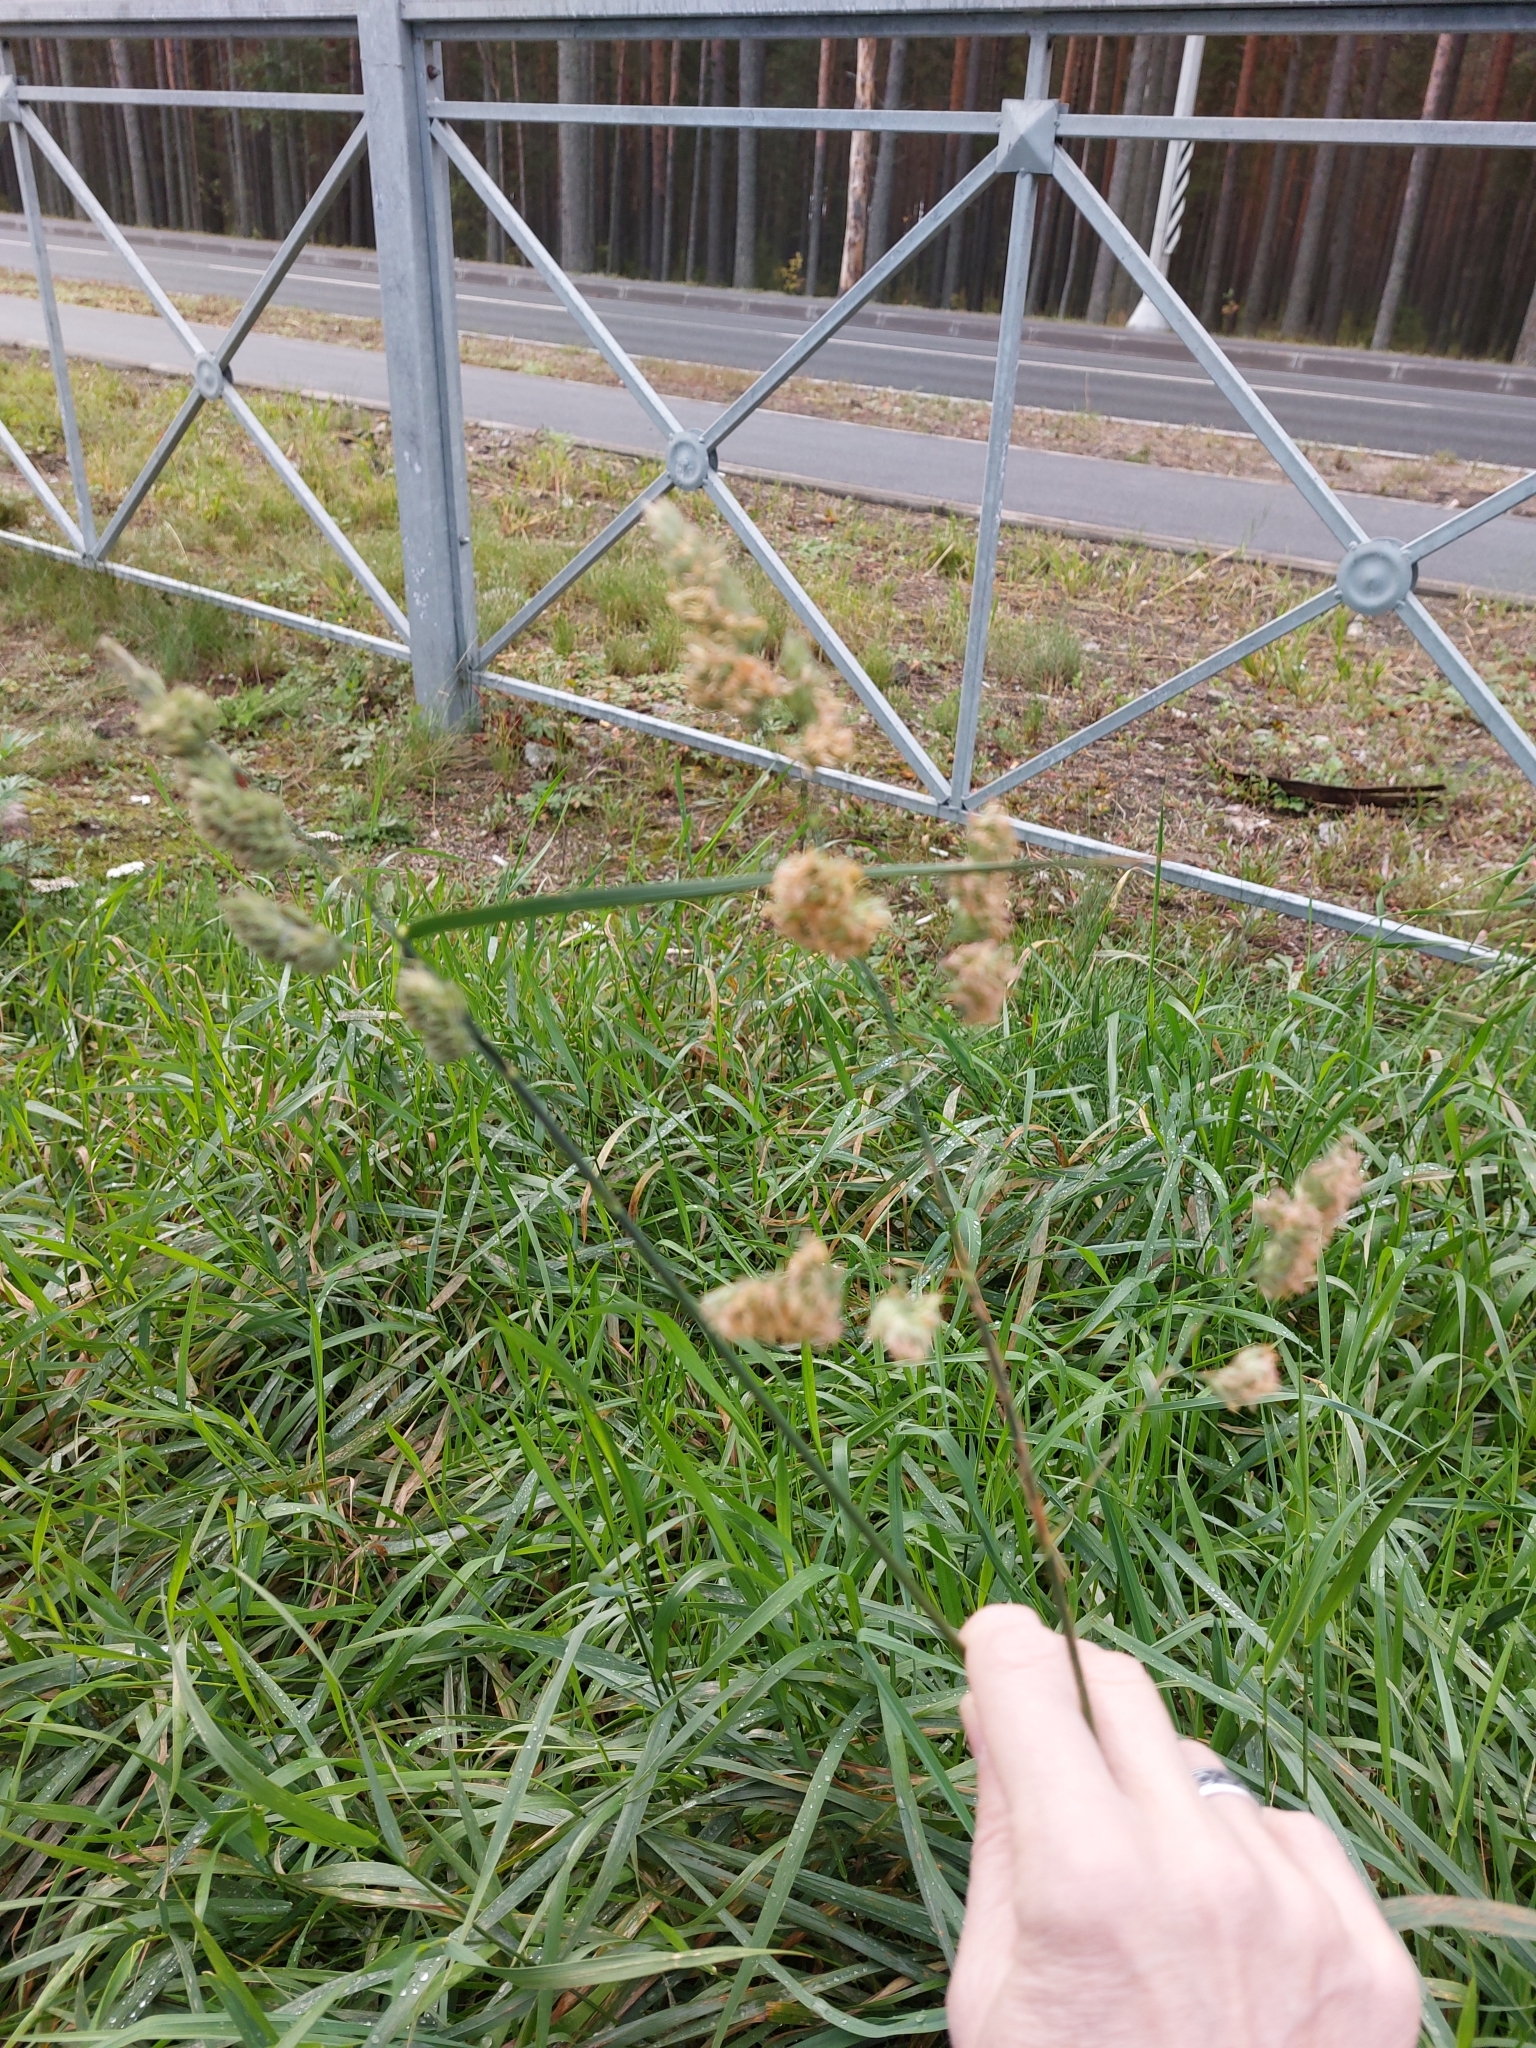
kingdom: Plantae
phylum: Tracheophyta
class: Liliopsida
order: Poales
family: Poaceae
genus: Dactylis
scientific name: Dactylis glomerata
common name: Orchardgrass
